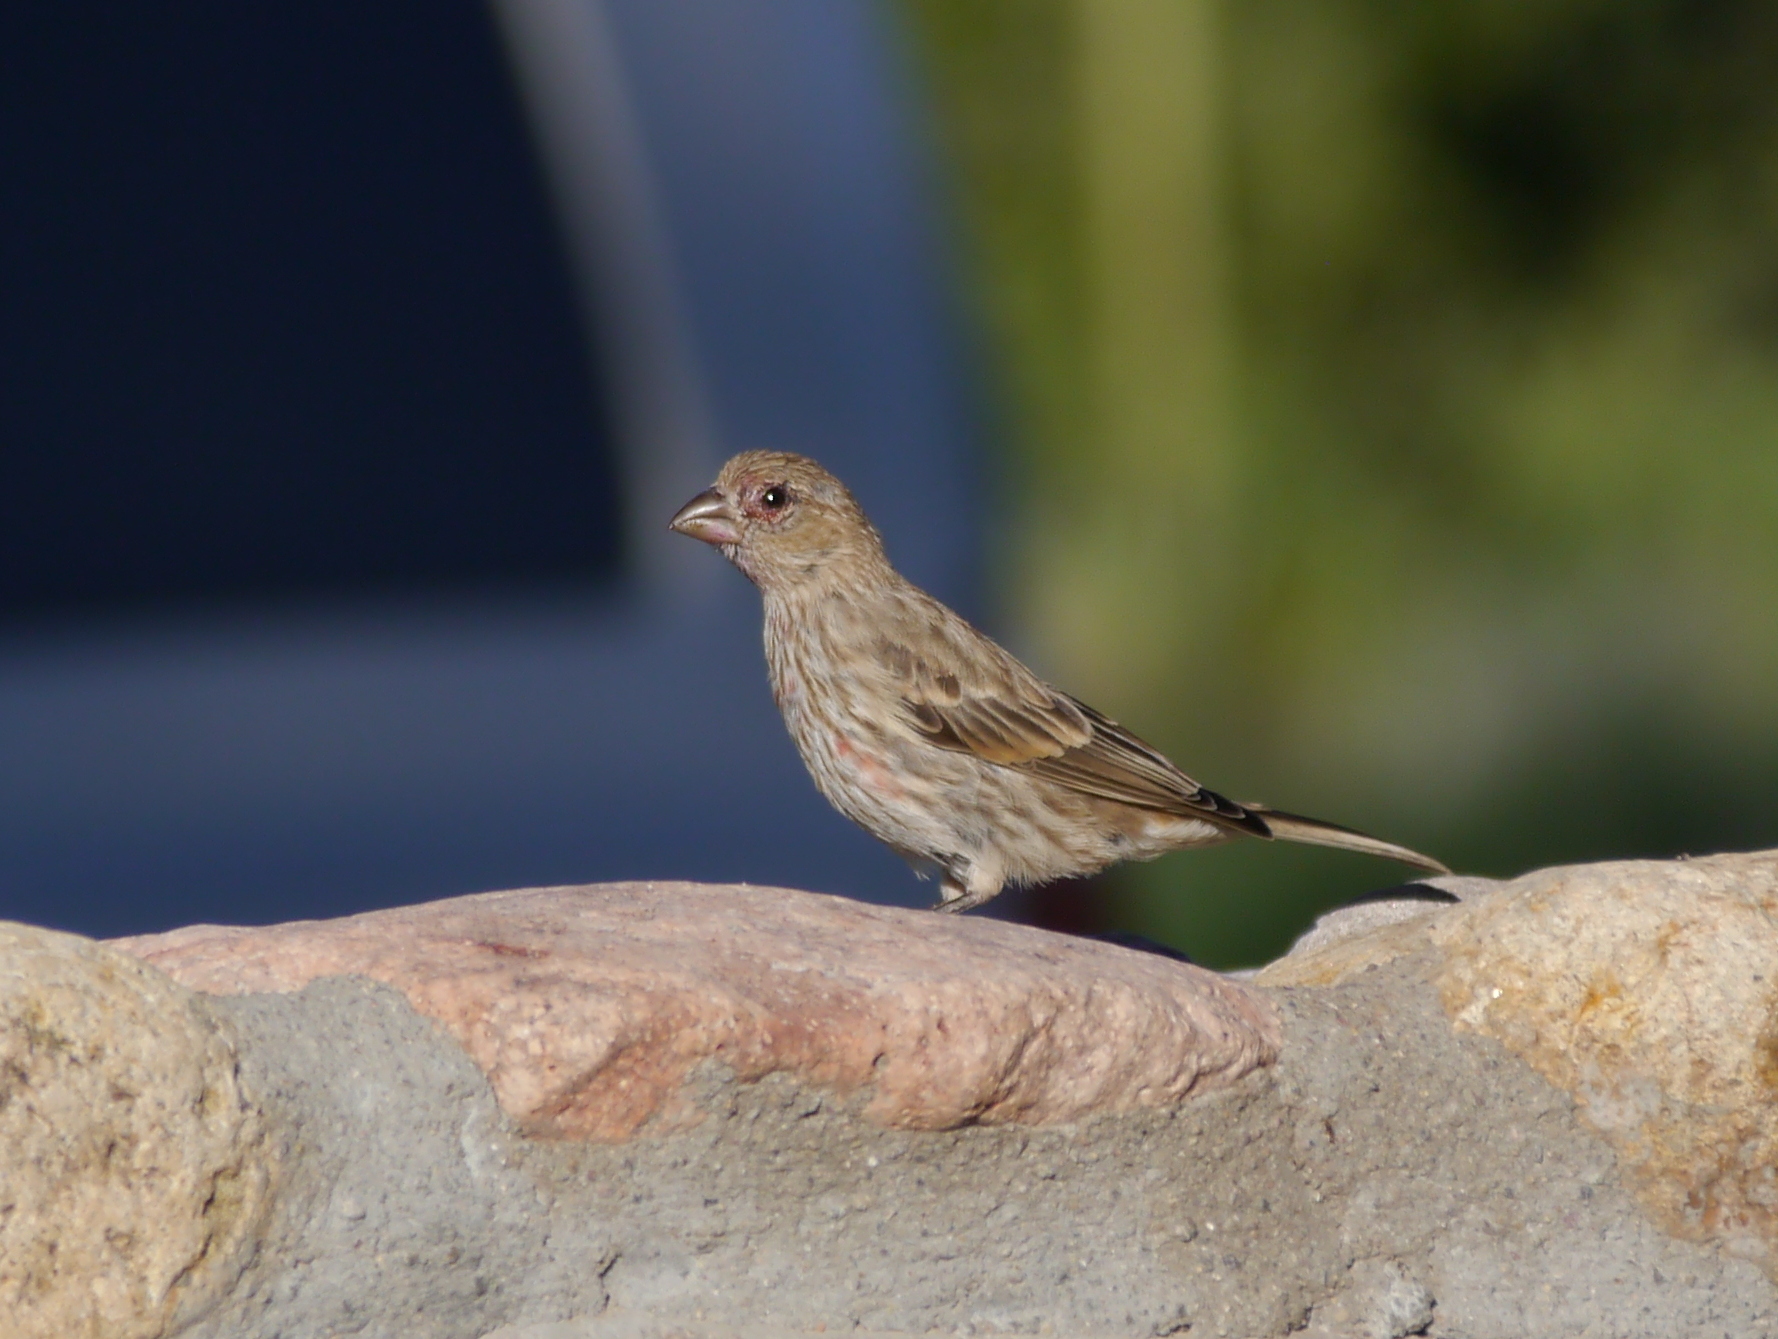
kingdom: Animalia
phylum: Chordata
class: Aves
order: Passeriformes
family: Fringillidae
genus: Haemorhous
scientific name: Haemorhous mexicanus
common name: House finch
